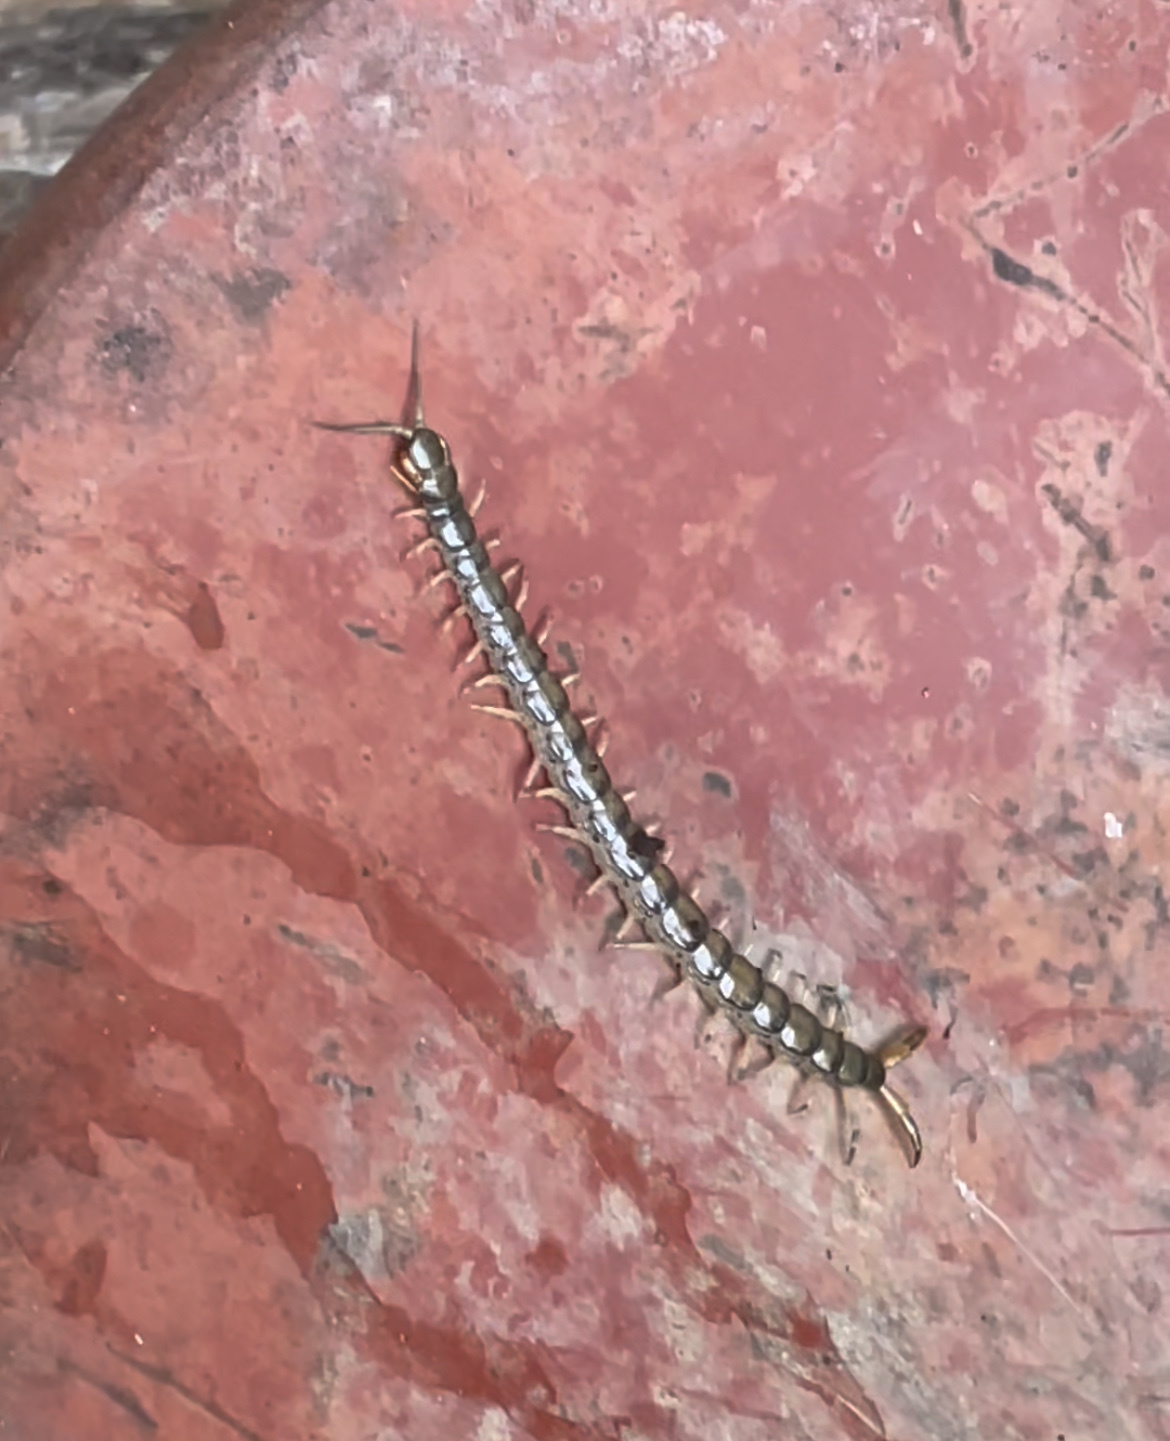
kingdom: Animalia
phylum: Arthropoda
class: Chilopoda
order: Scolopendromorpha
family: Scolopendridae
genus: Hemiscolopendra
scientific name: Hemiscolopendra marginata
